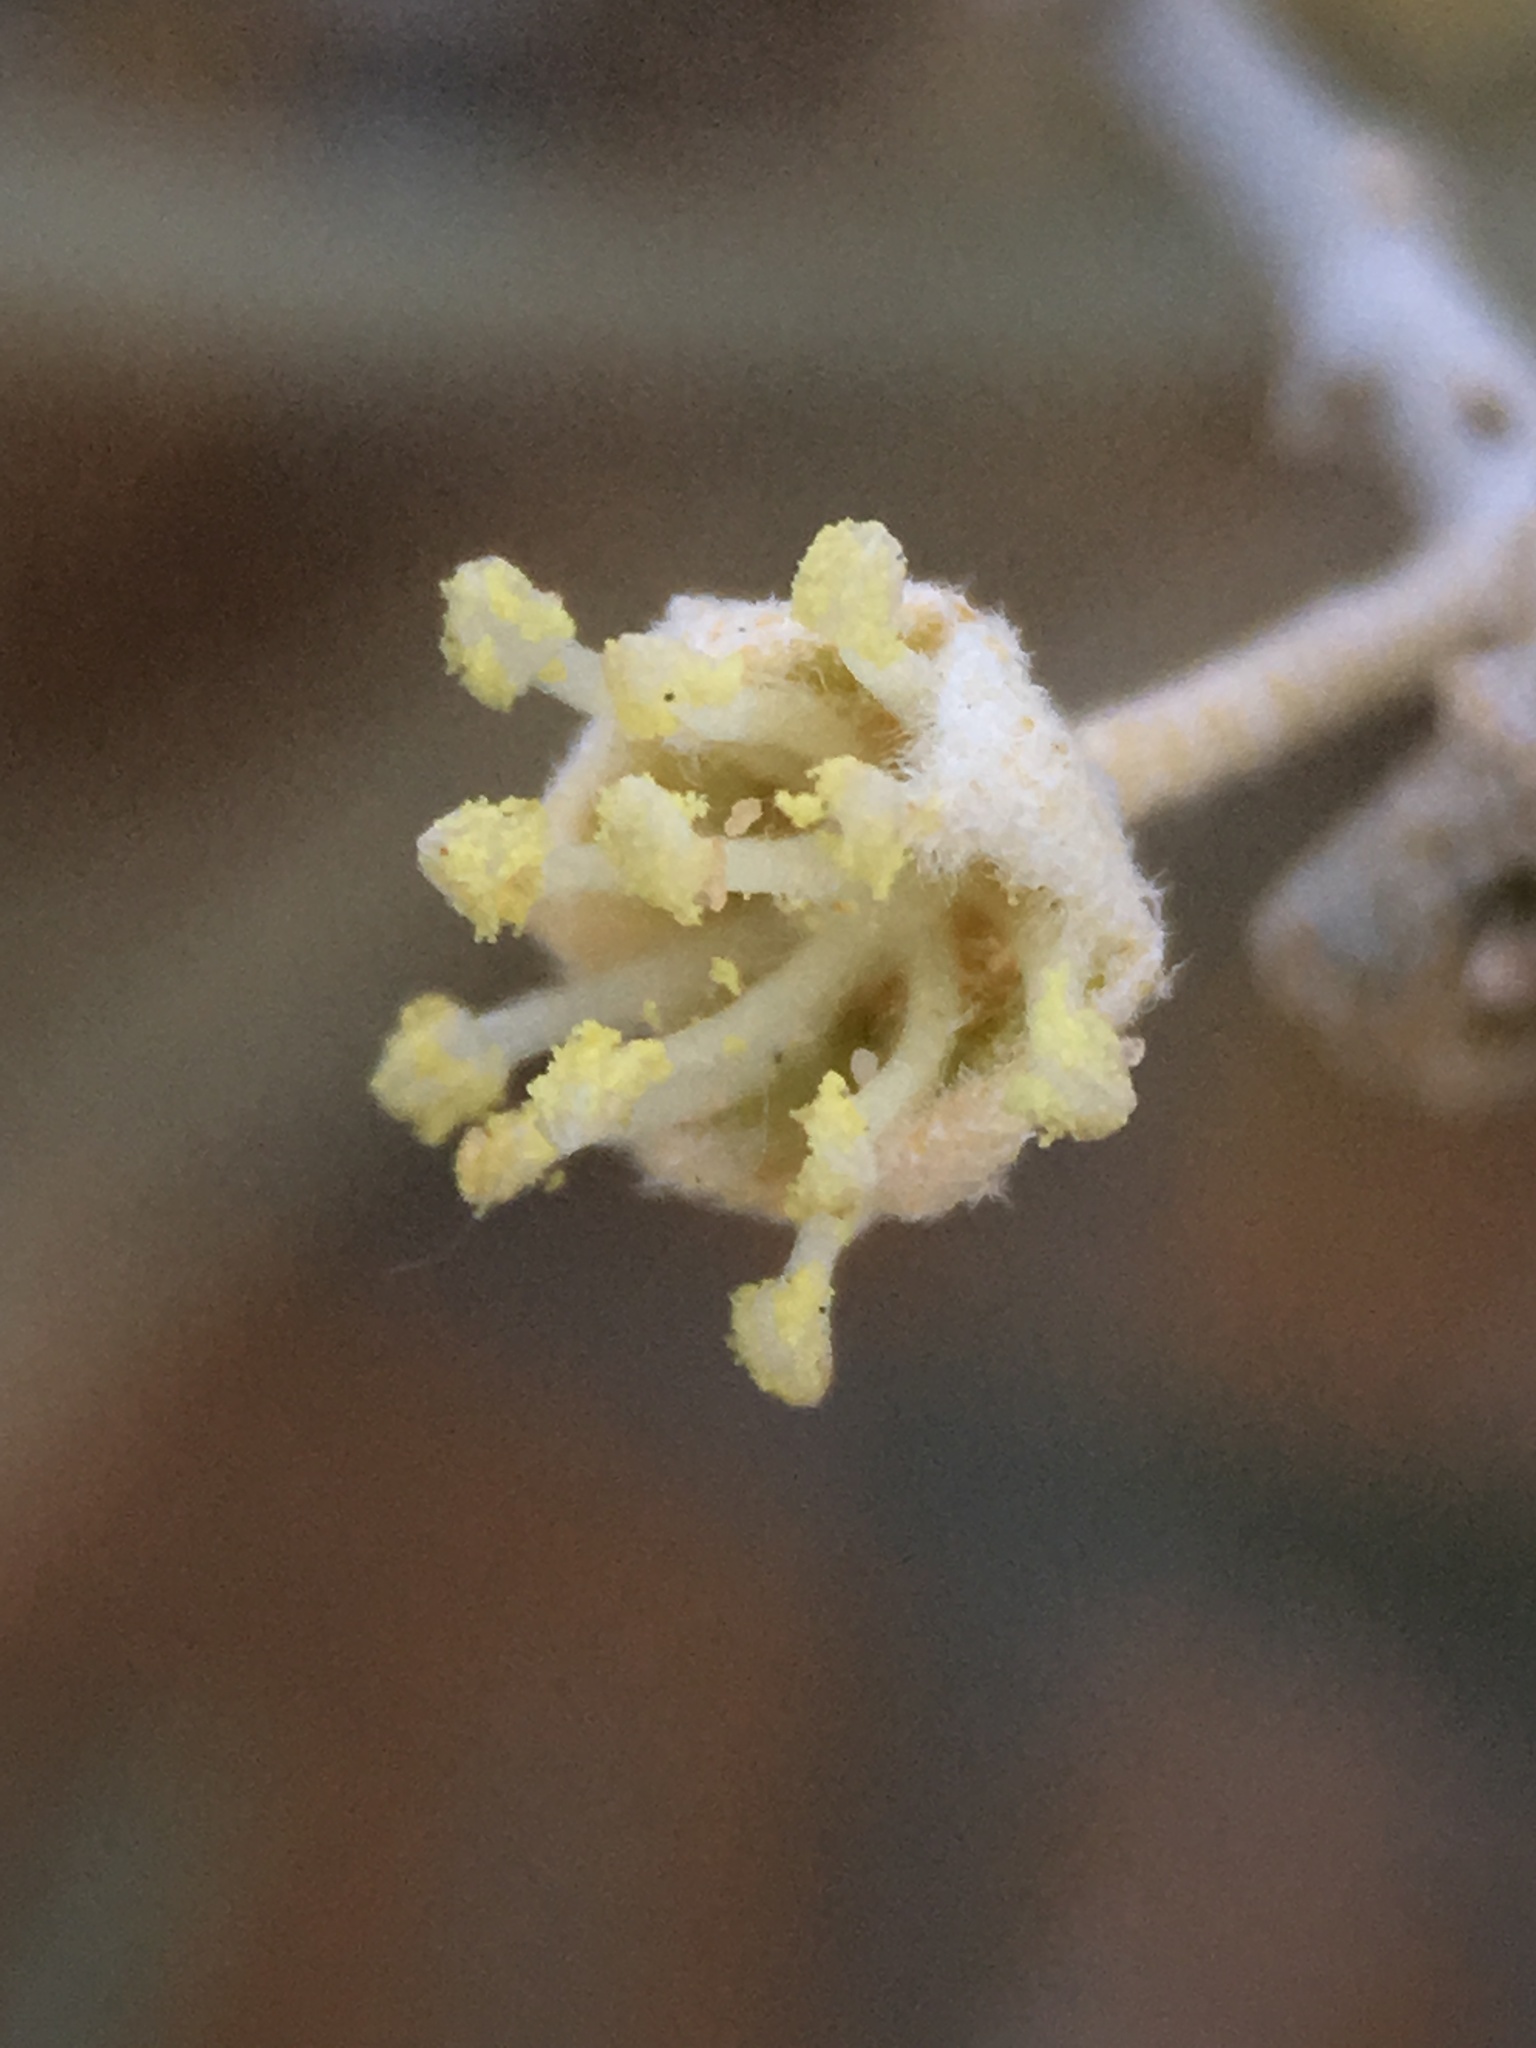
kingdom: Plantae
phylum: Tracheophyta
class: Magnoliopsida
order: Malpighiales
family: Euphorbiaceae
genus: Croton
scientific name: Croton wigginsii
